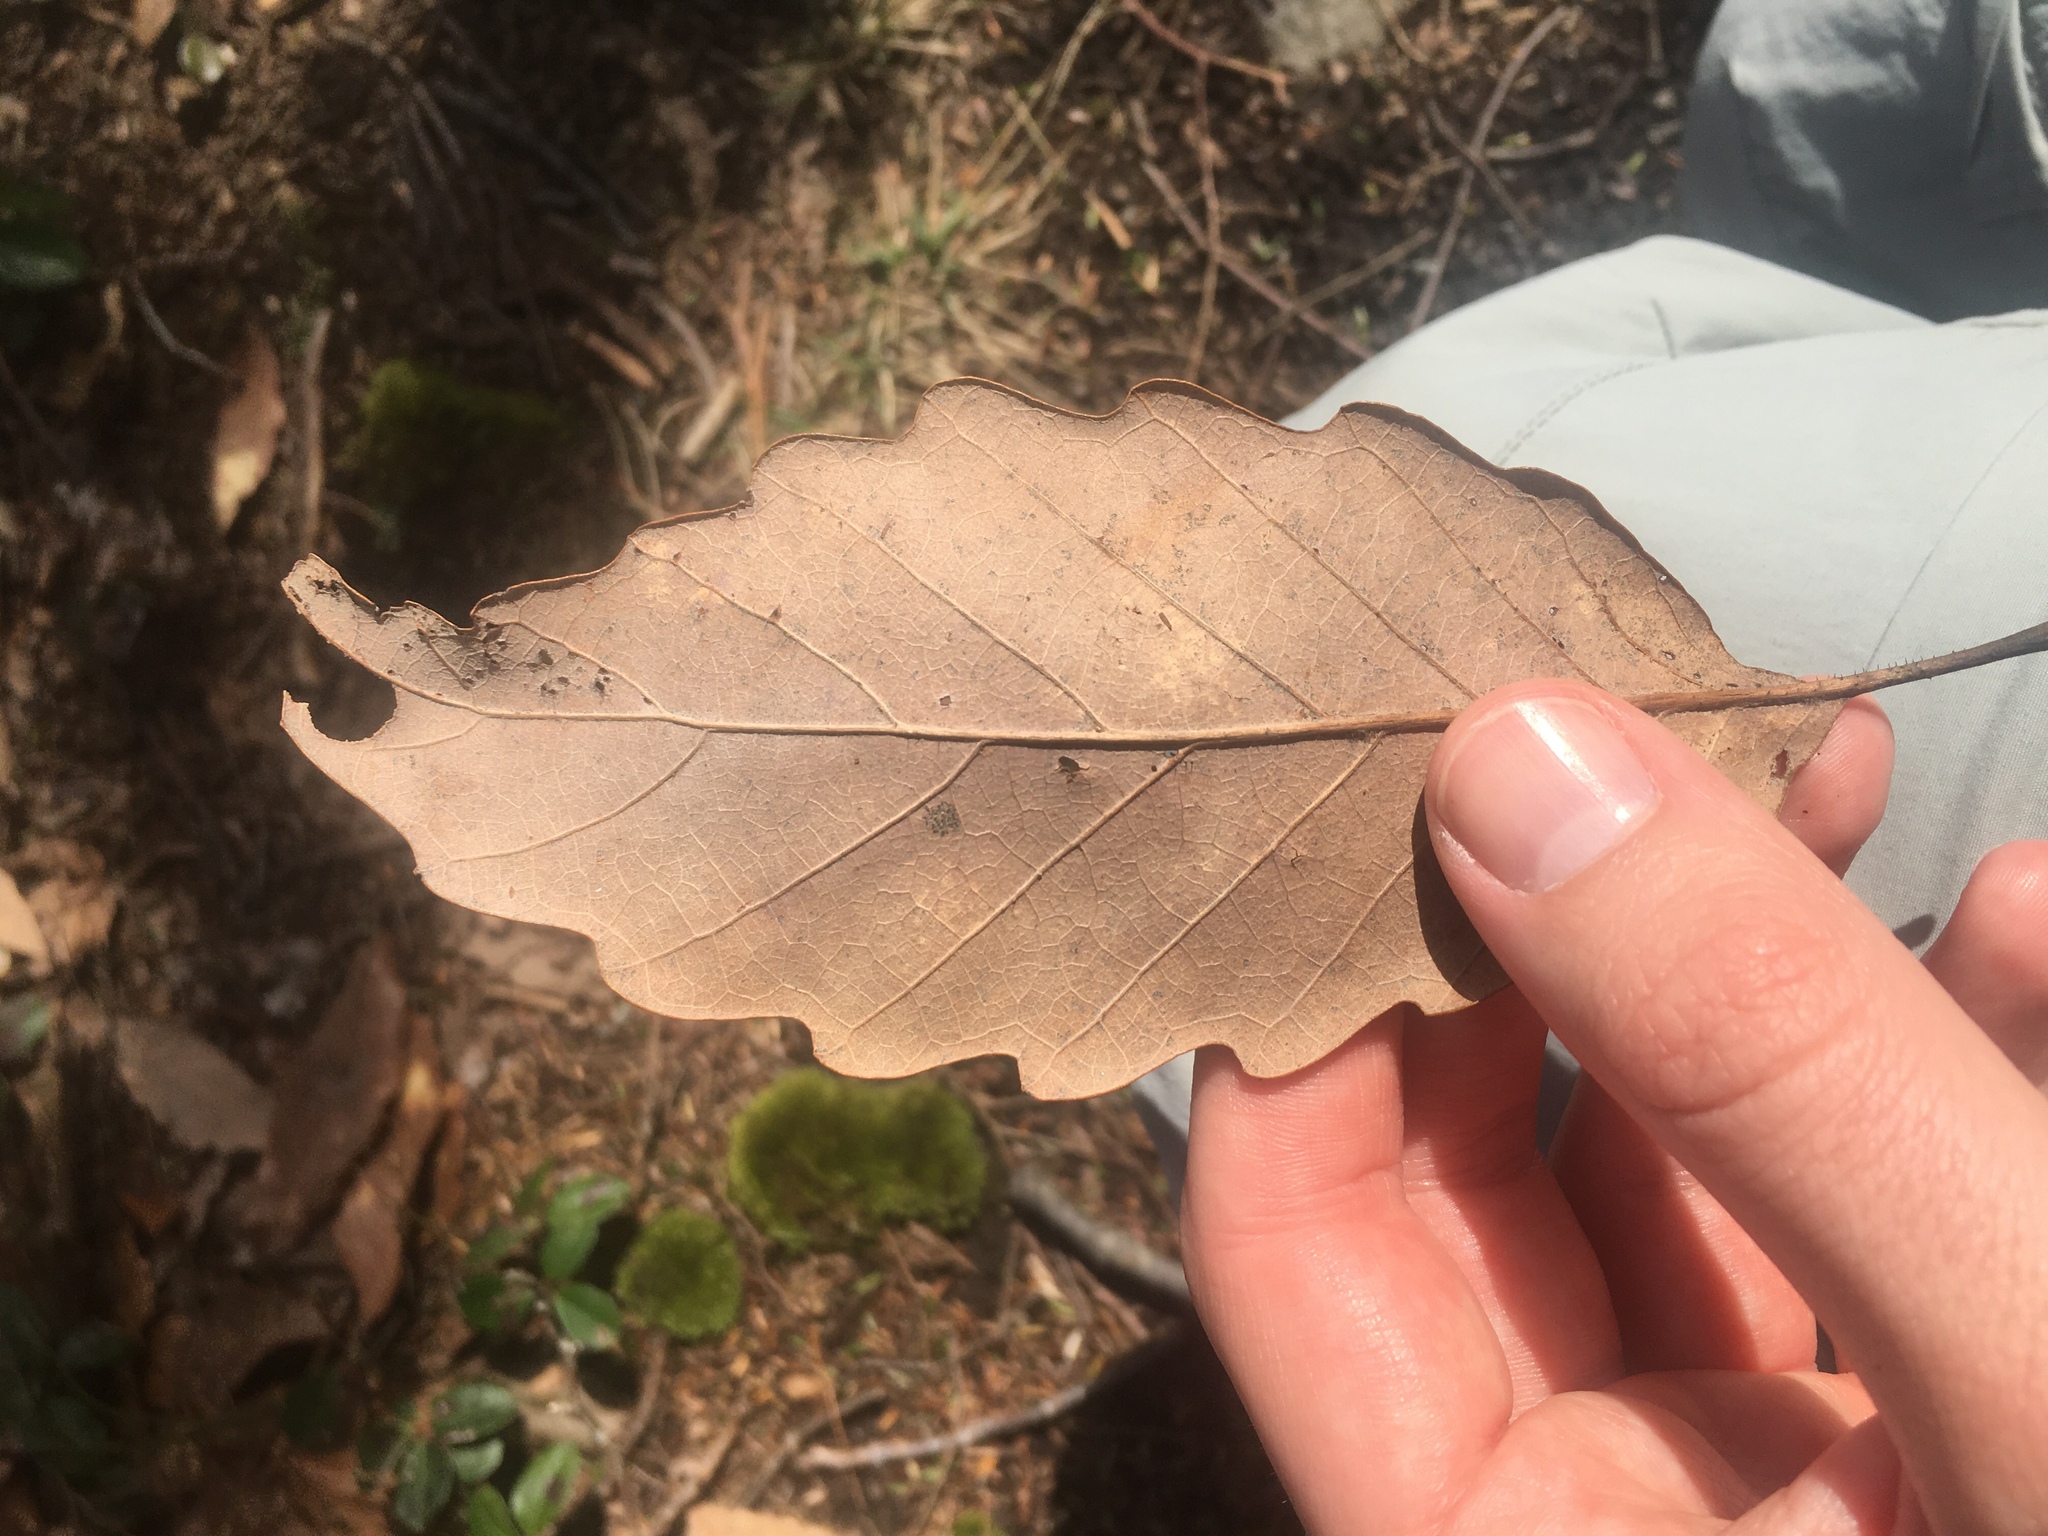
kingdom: Plantae
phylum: Tracheophyta
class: Magnoliopsida
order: Fagales
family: Fagaceae
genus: Quercus
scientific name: Quercus montana
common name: Chestnut oak
